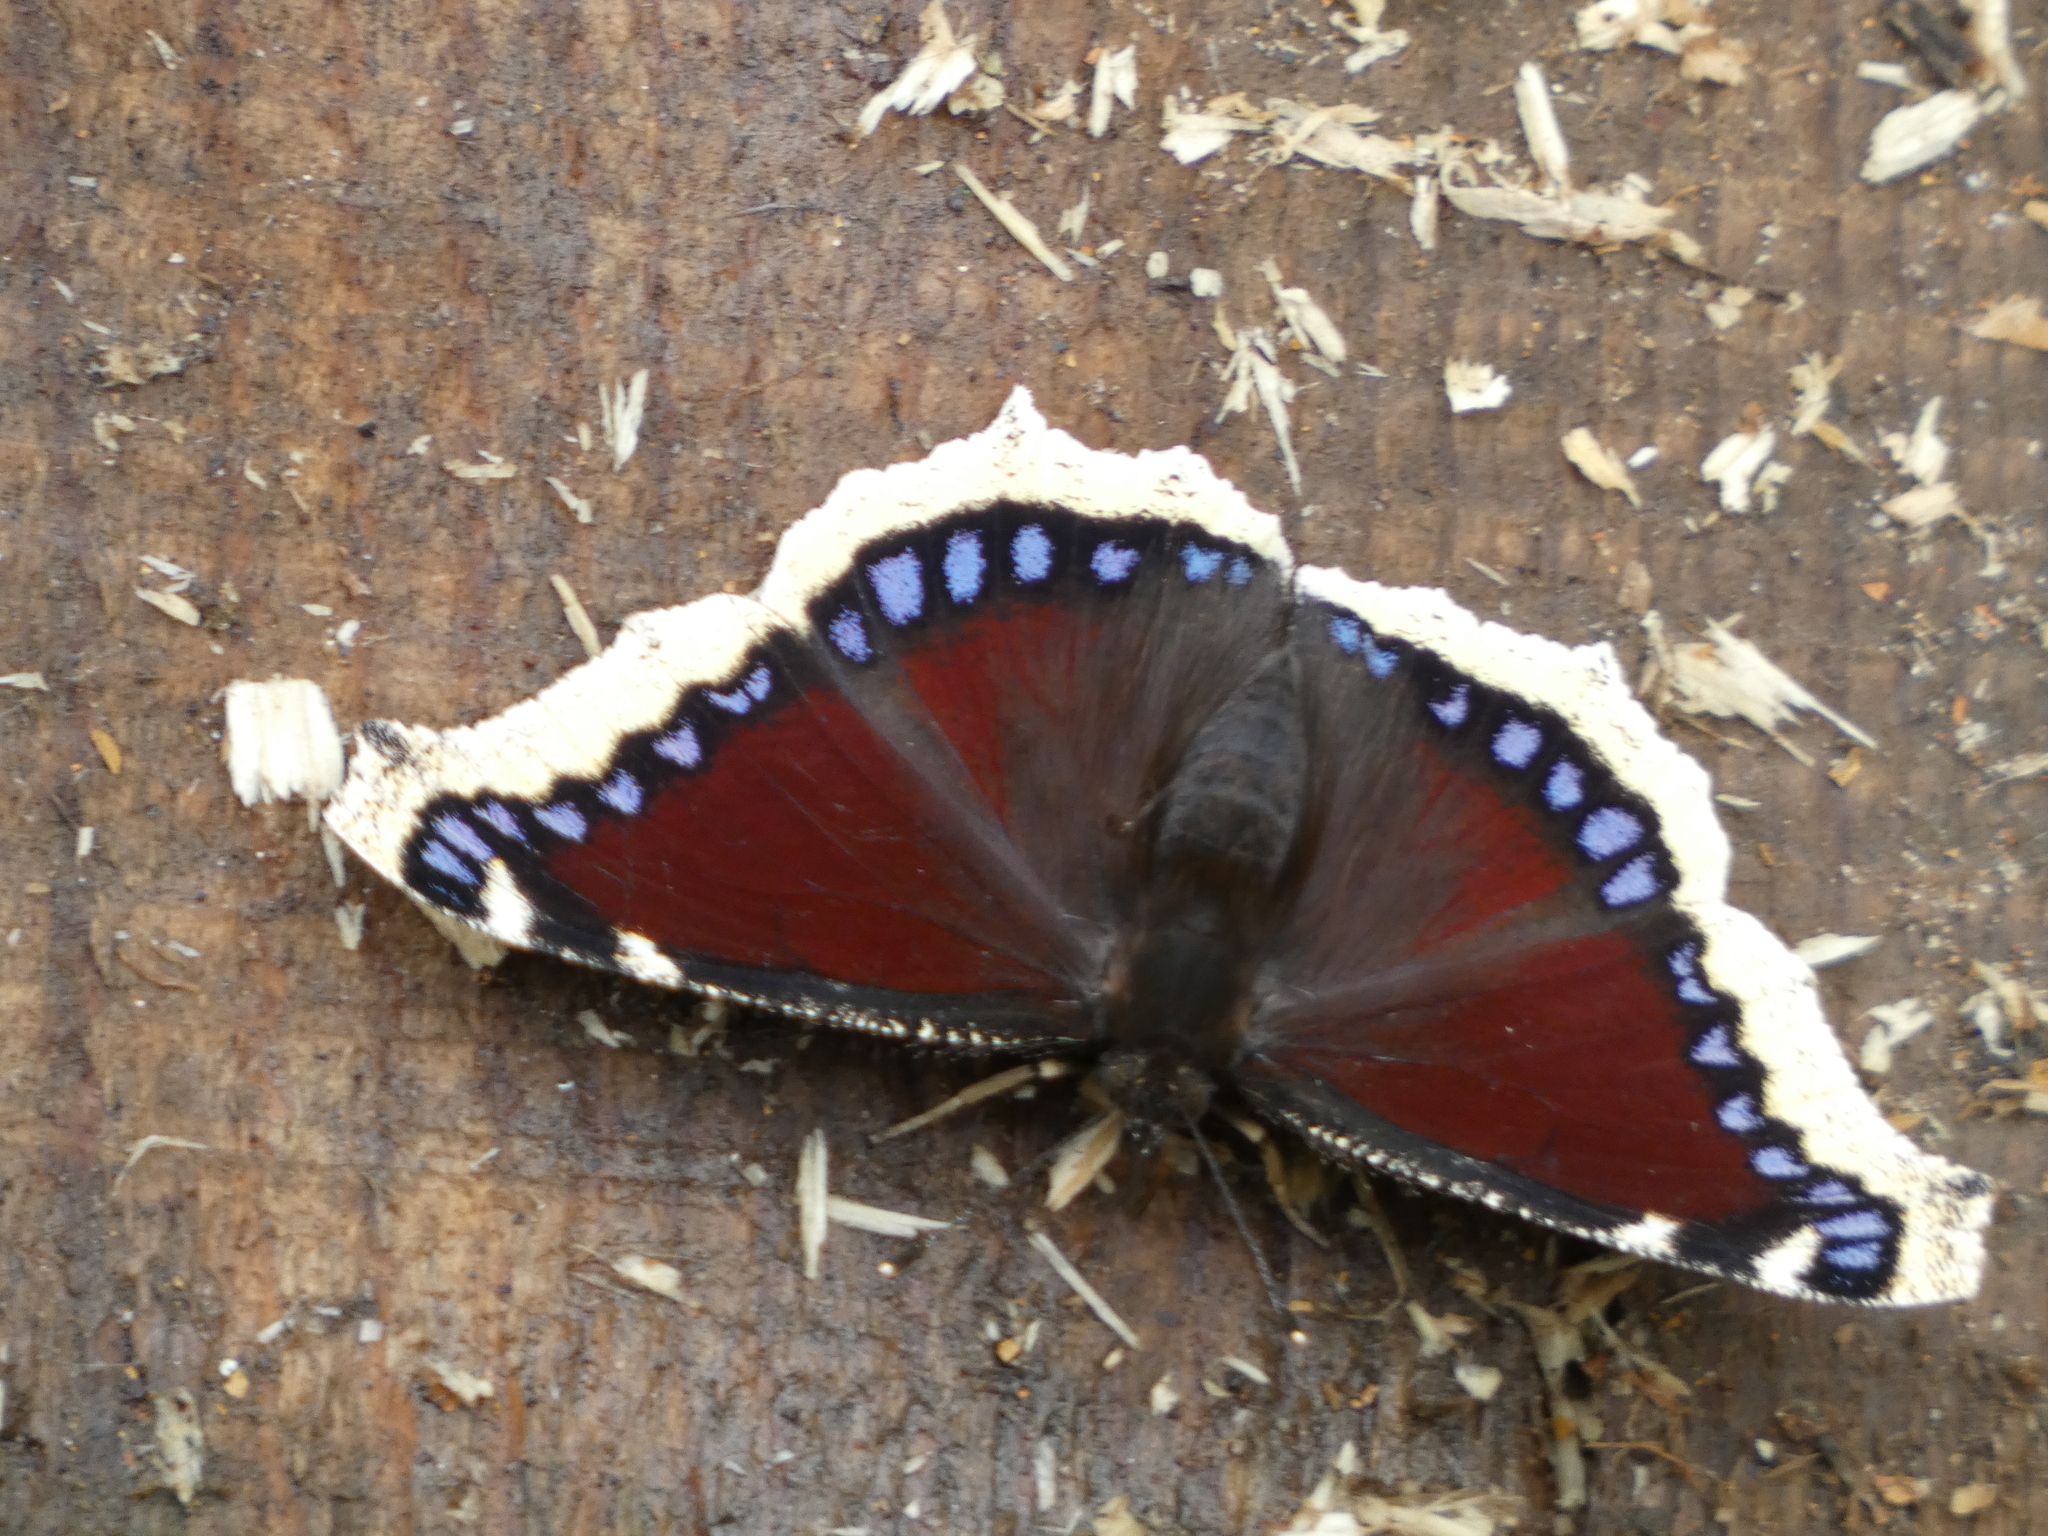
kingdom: Animalia
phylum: Arthropoda
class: Insecta
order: Lepidoptera
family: Nymphalidae
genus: Nymphalis
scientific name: Nymphalis antiopa
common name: Camberwell beauty
